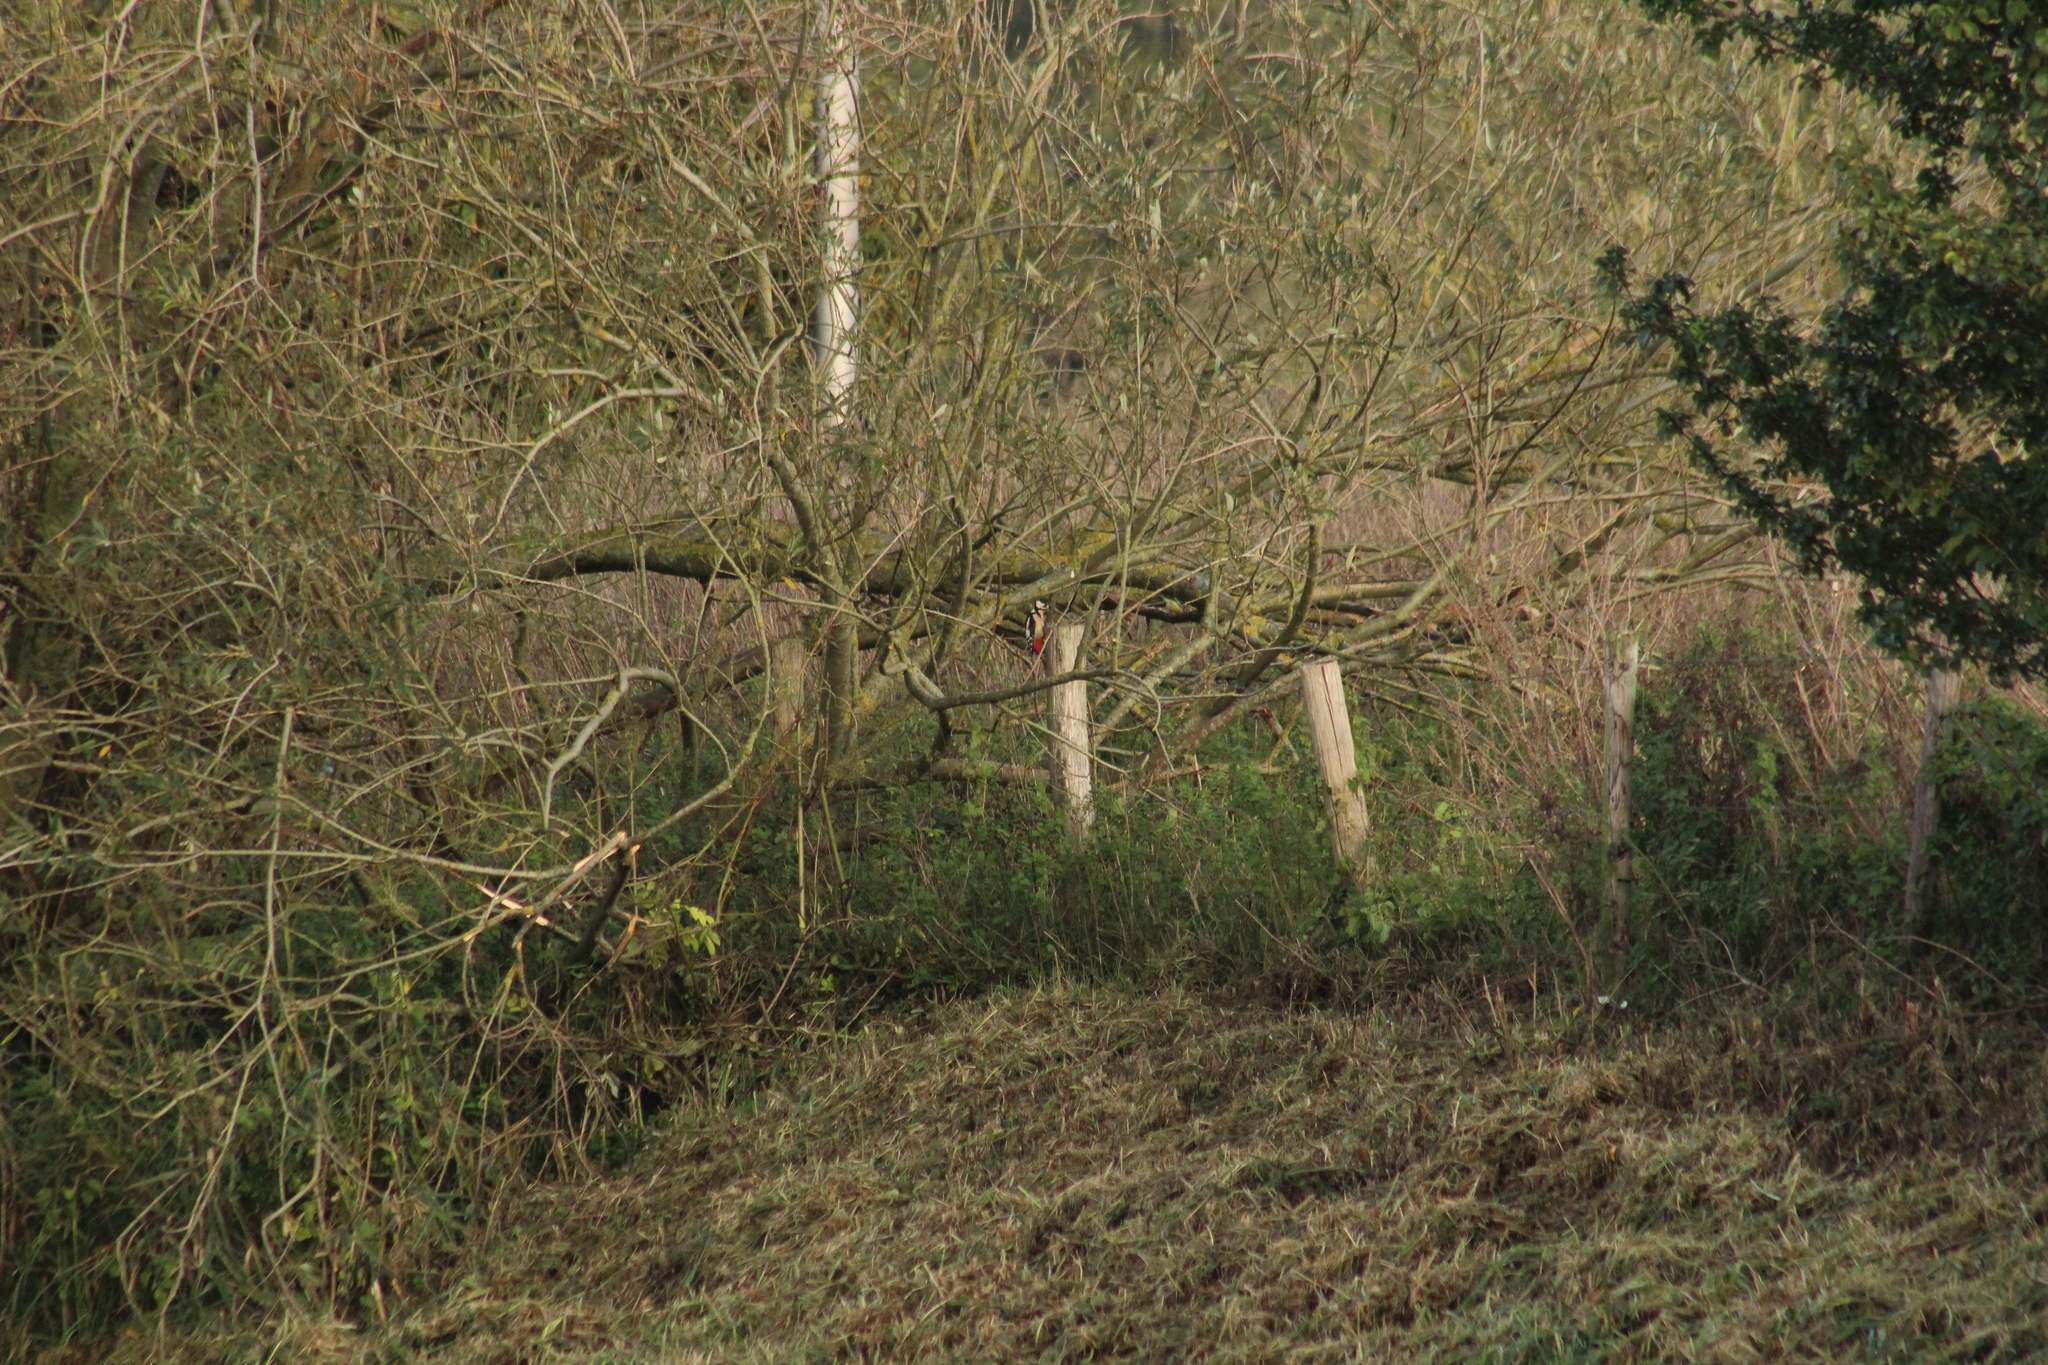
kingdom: Animalia
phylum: Chordata
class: Aves
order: Piciformes
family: Picidae
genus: Dendrocopos
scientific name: Dendrocopos major
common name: Great spotted woodpecker
